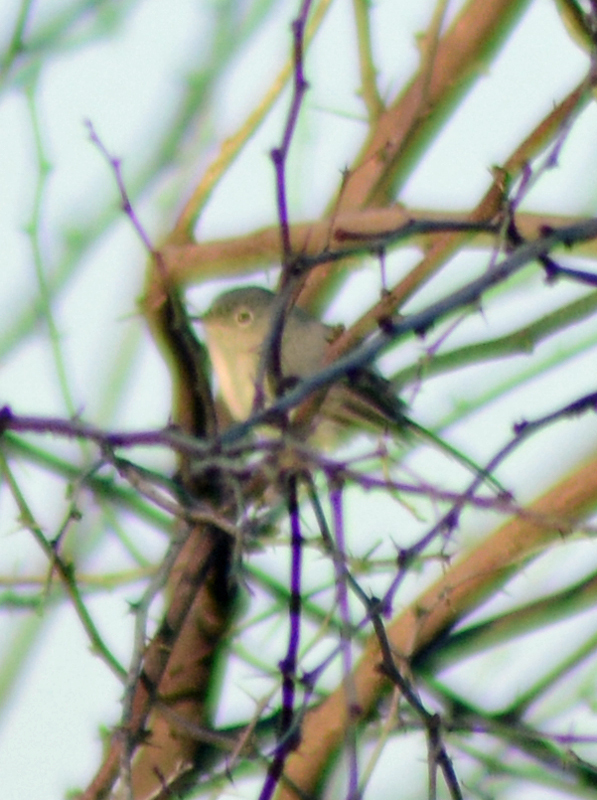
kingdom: Animalia
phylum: Chordata
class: Aves
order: Passeriformes
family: Polioptilidae
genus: Polioptila
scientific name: Polioptila caerulea
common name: Blue-gray gnatcatcher
